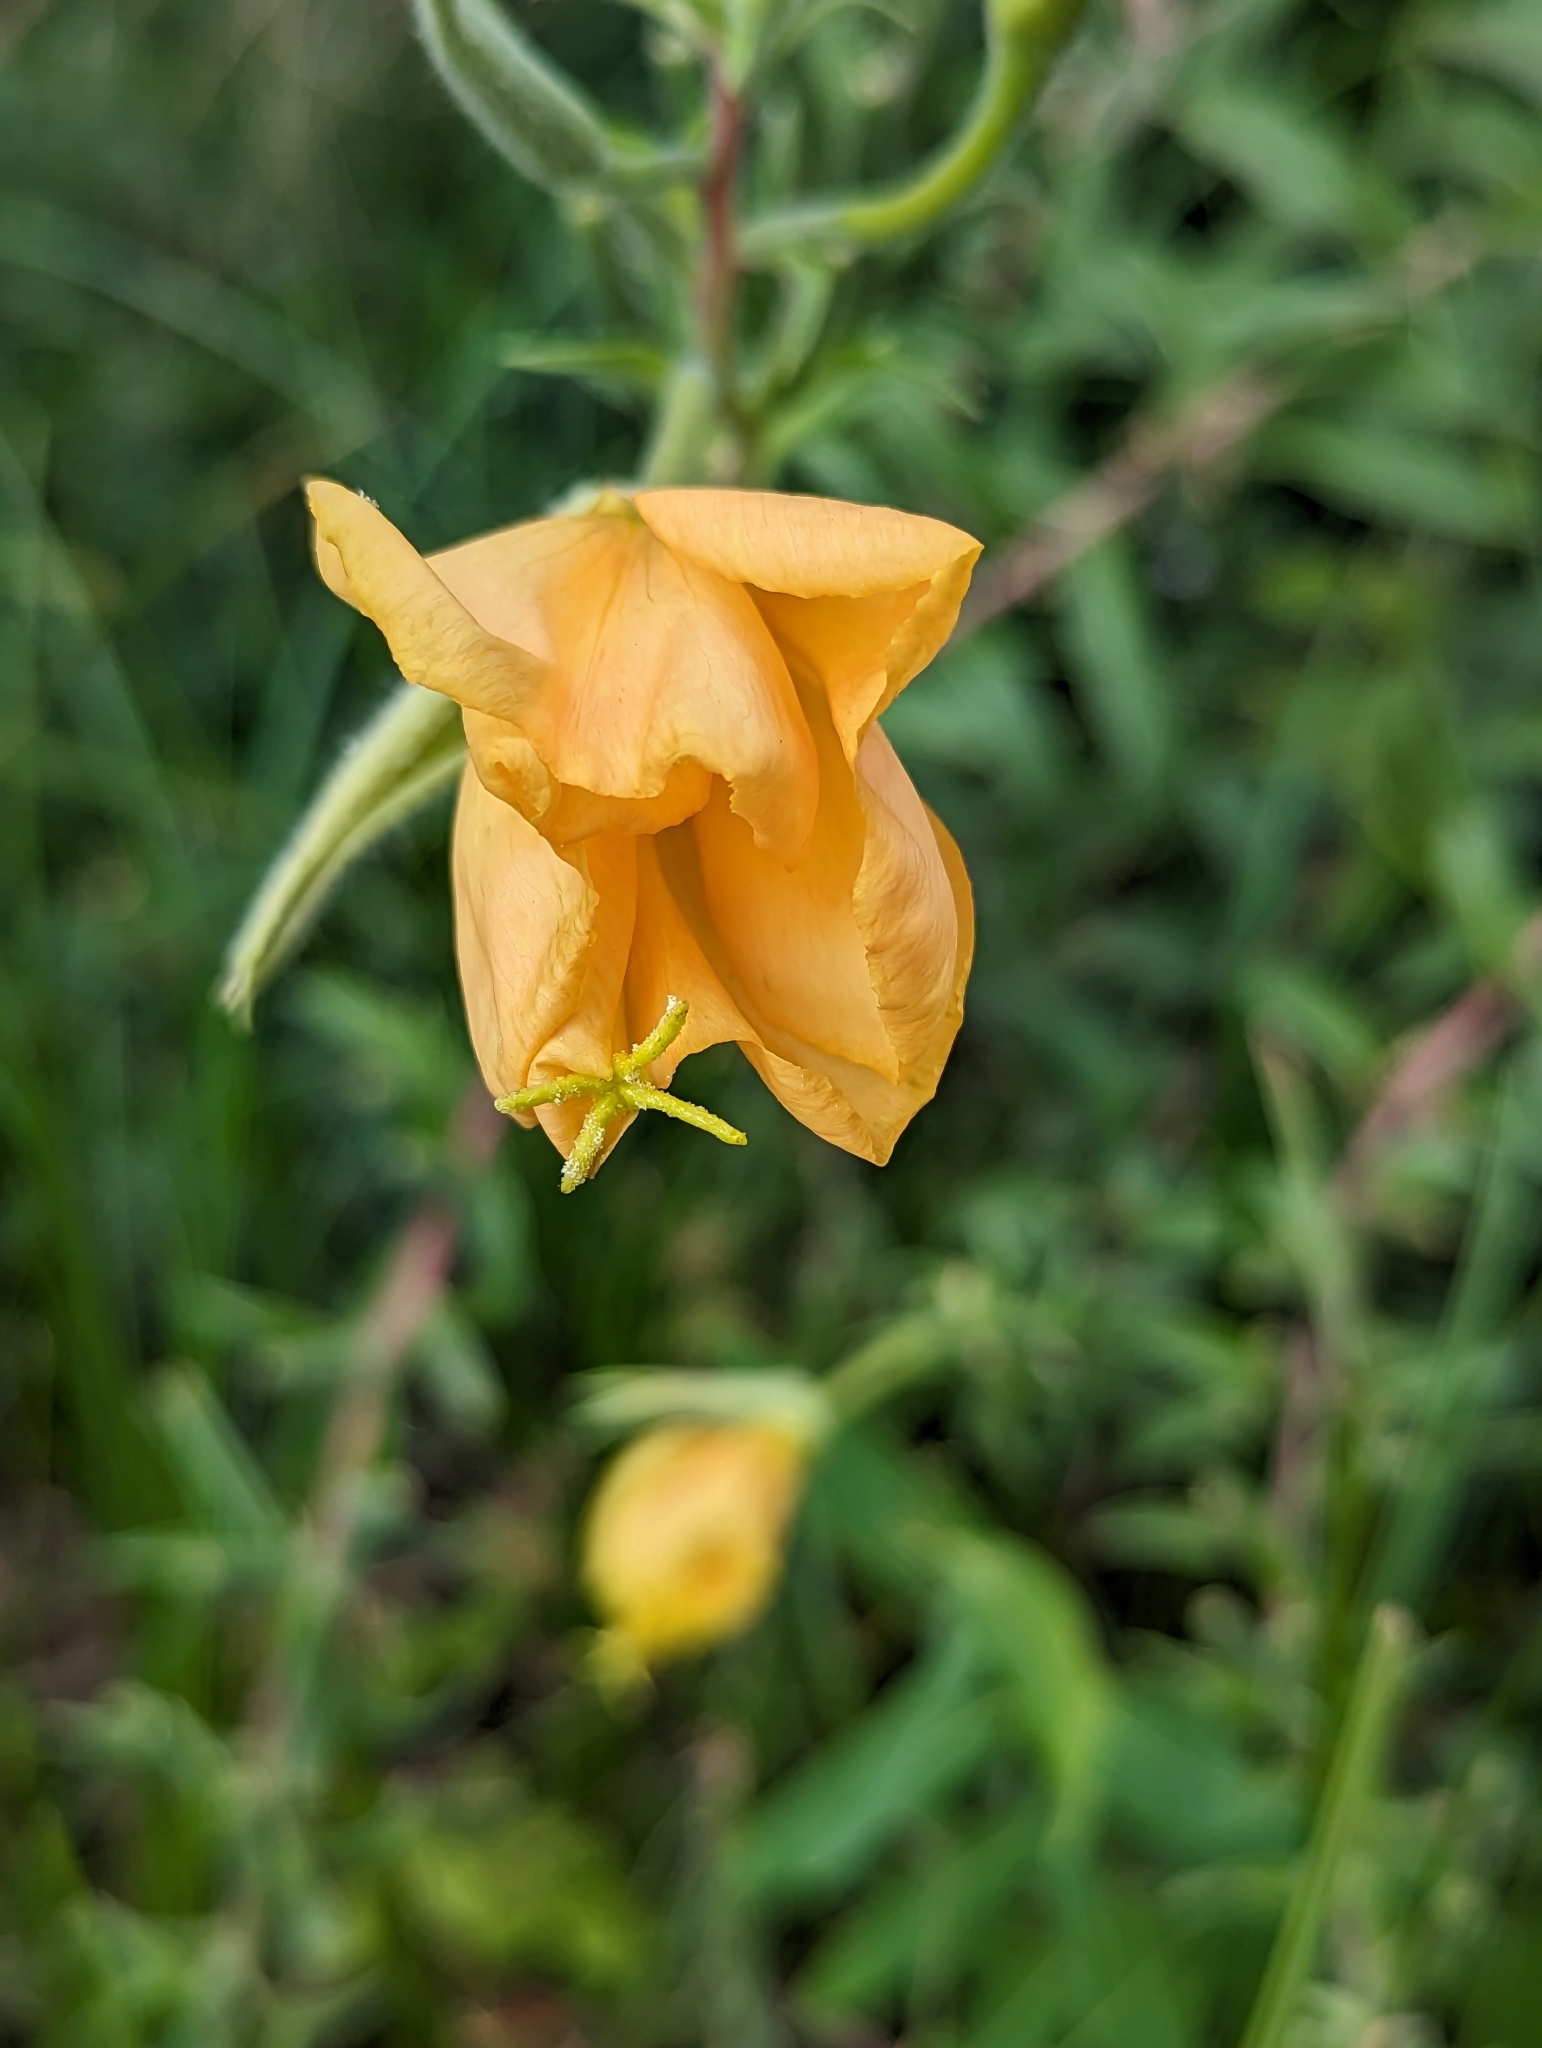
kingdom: Plantae
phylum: Tracheophyta
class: Magnoliopsida
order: Myrtales
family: Onagraceae
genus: Oenothera
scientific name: Oenothera elata
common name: Hooker's evening-primrose
